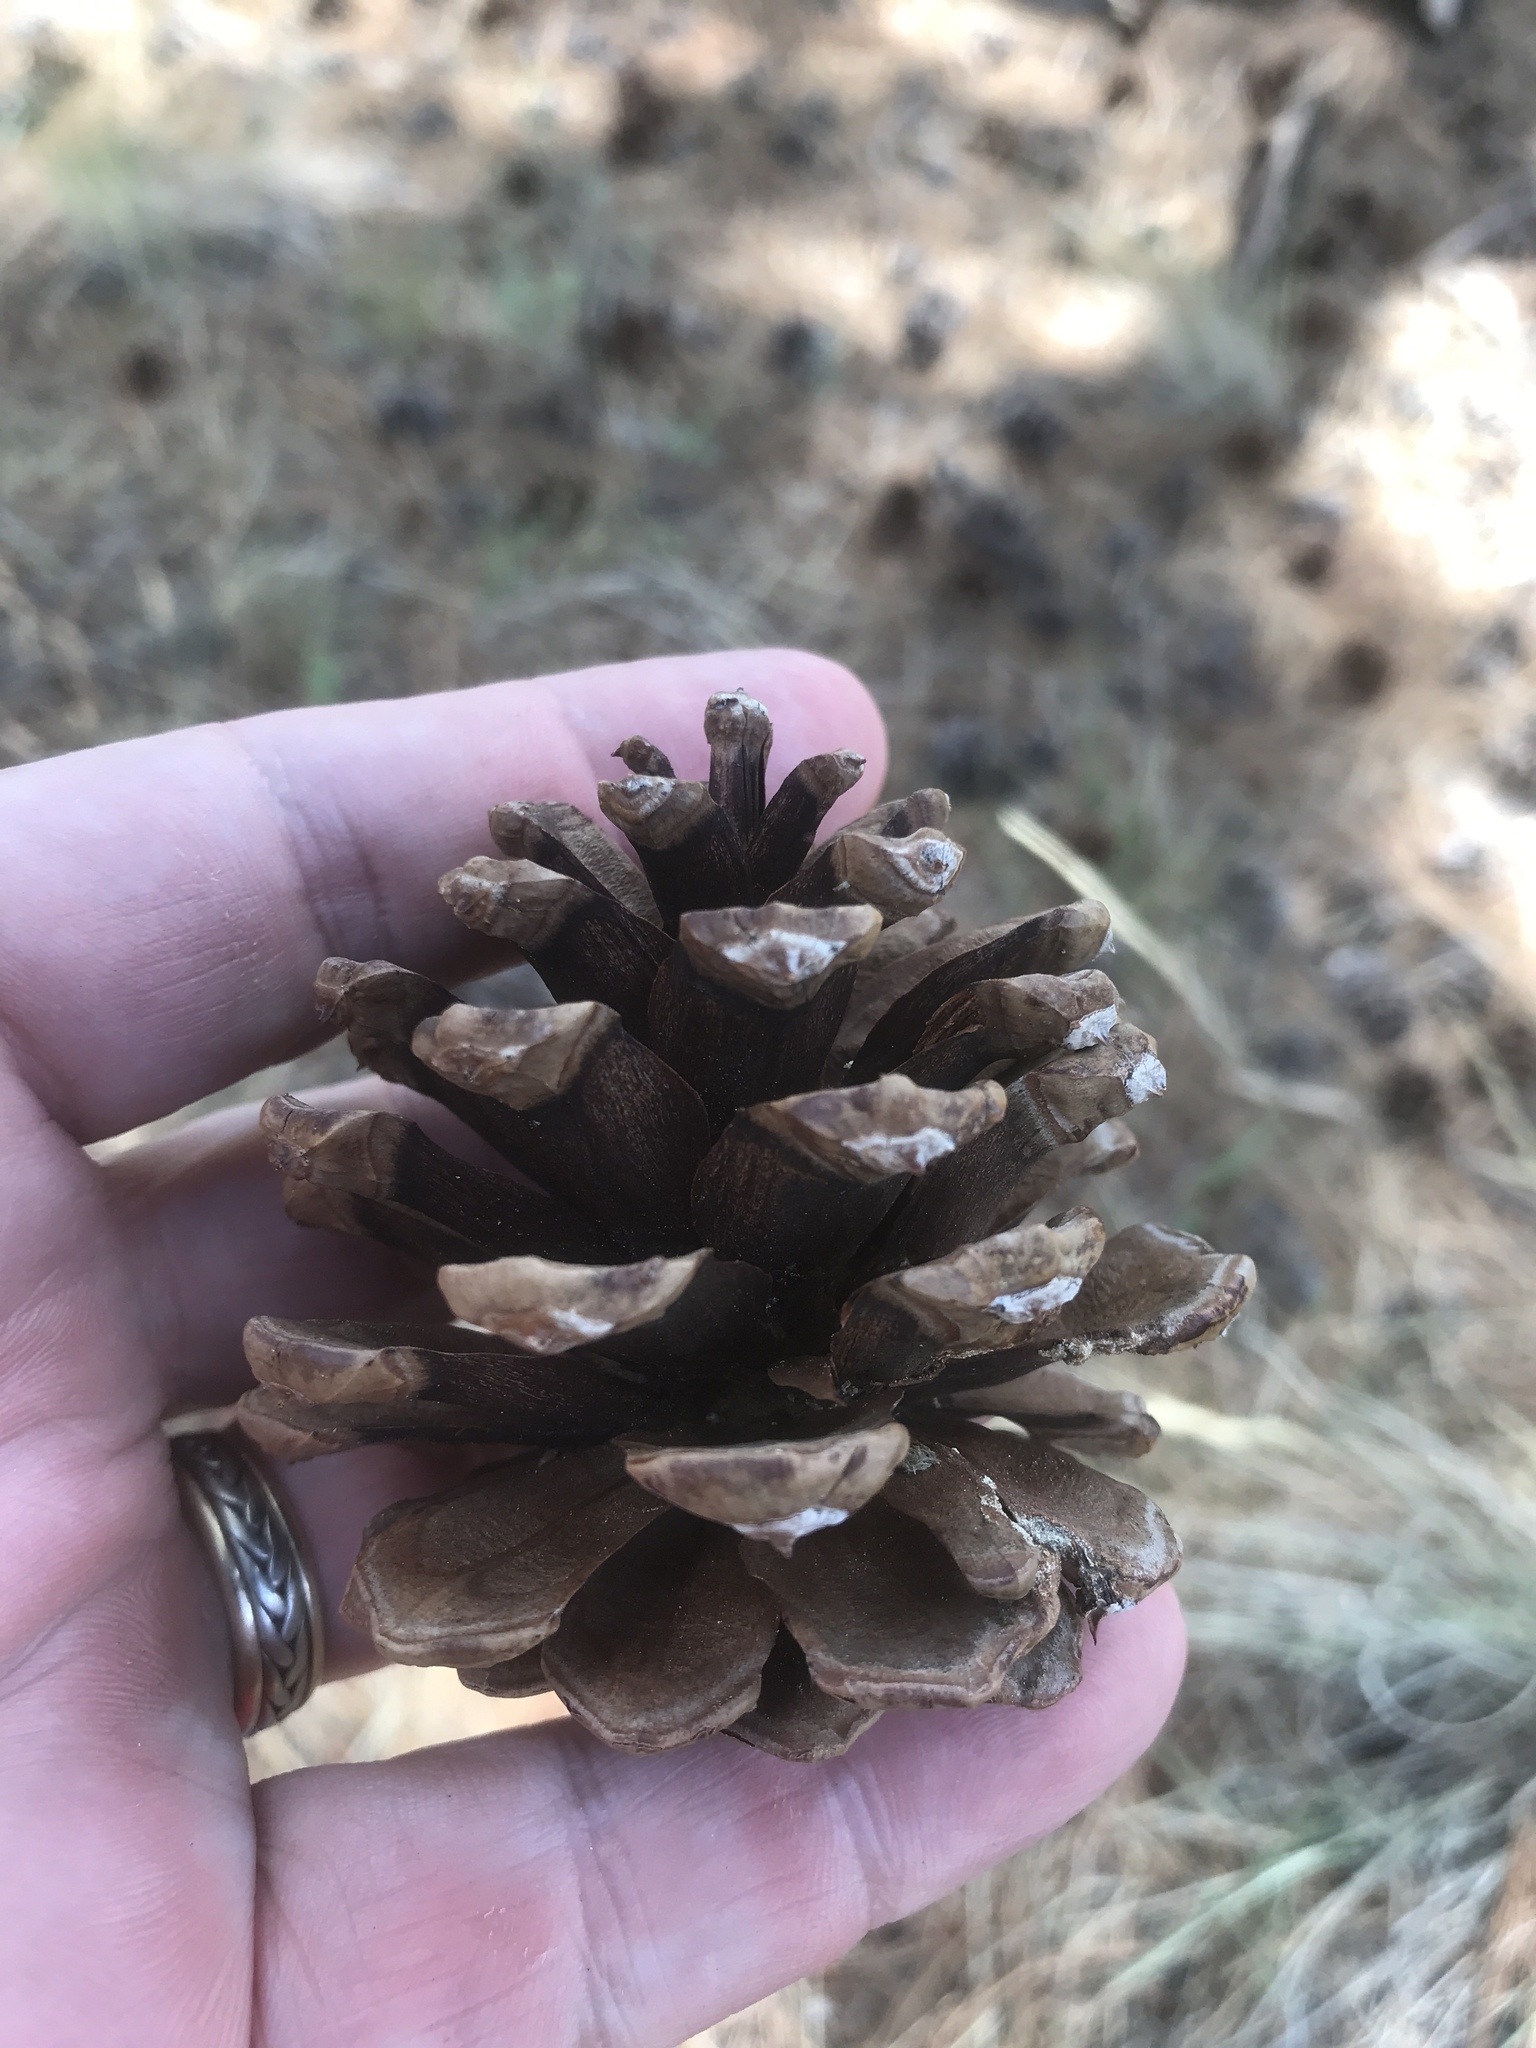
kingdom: Plantae
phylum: Tracheophyta
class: Pinopsida
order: Pinales
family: Pinaceae
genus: Pinus
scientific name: Pinus ponderosa
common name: Western yellow-pine
